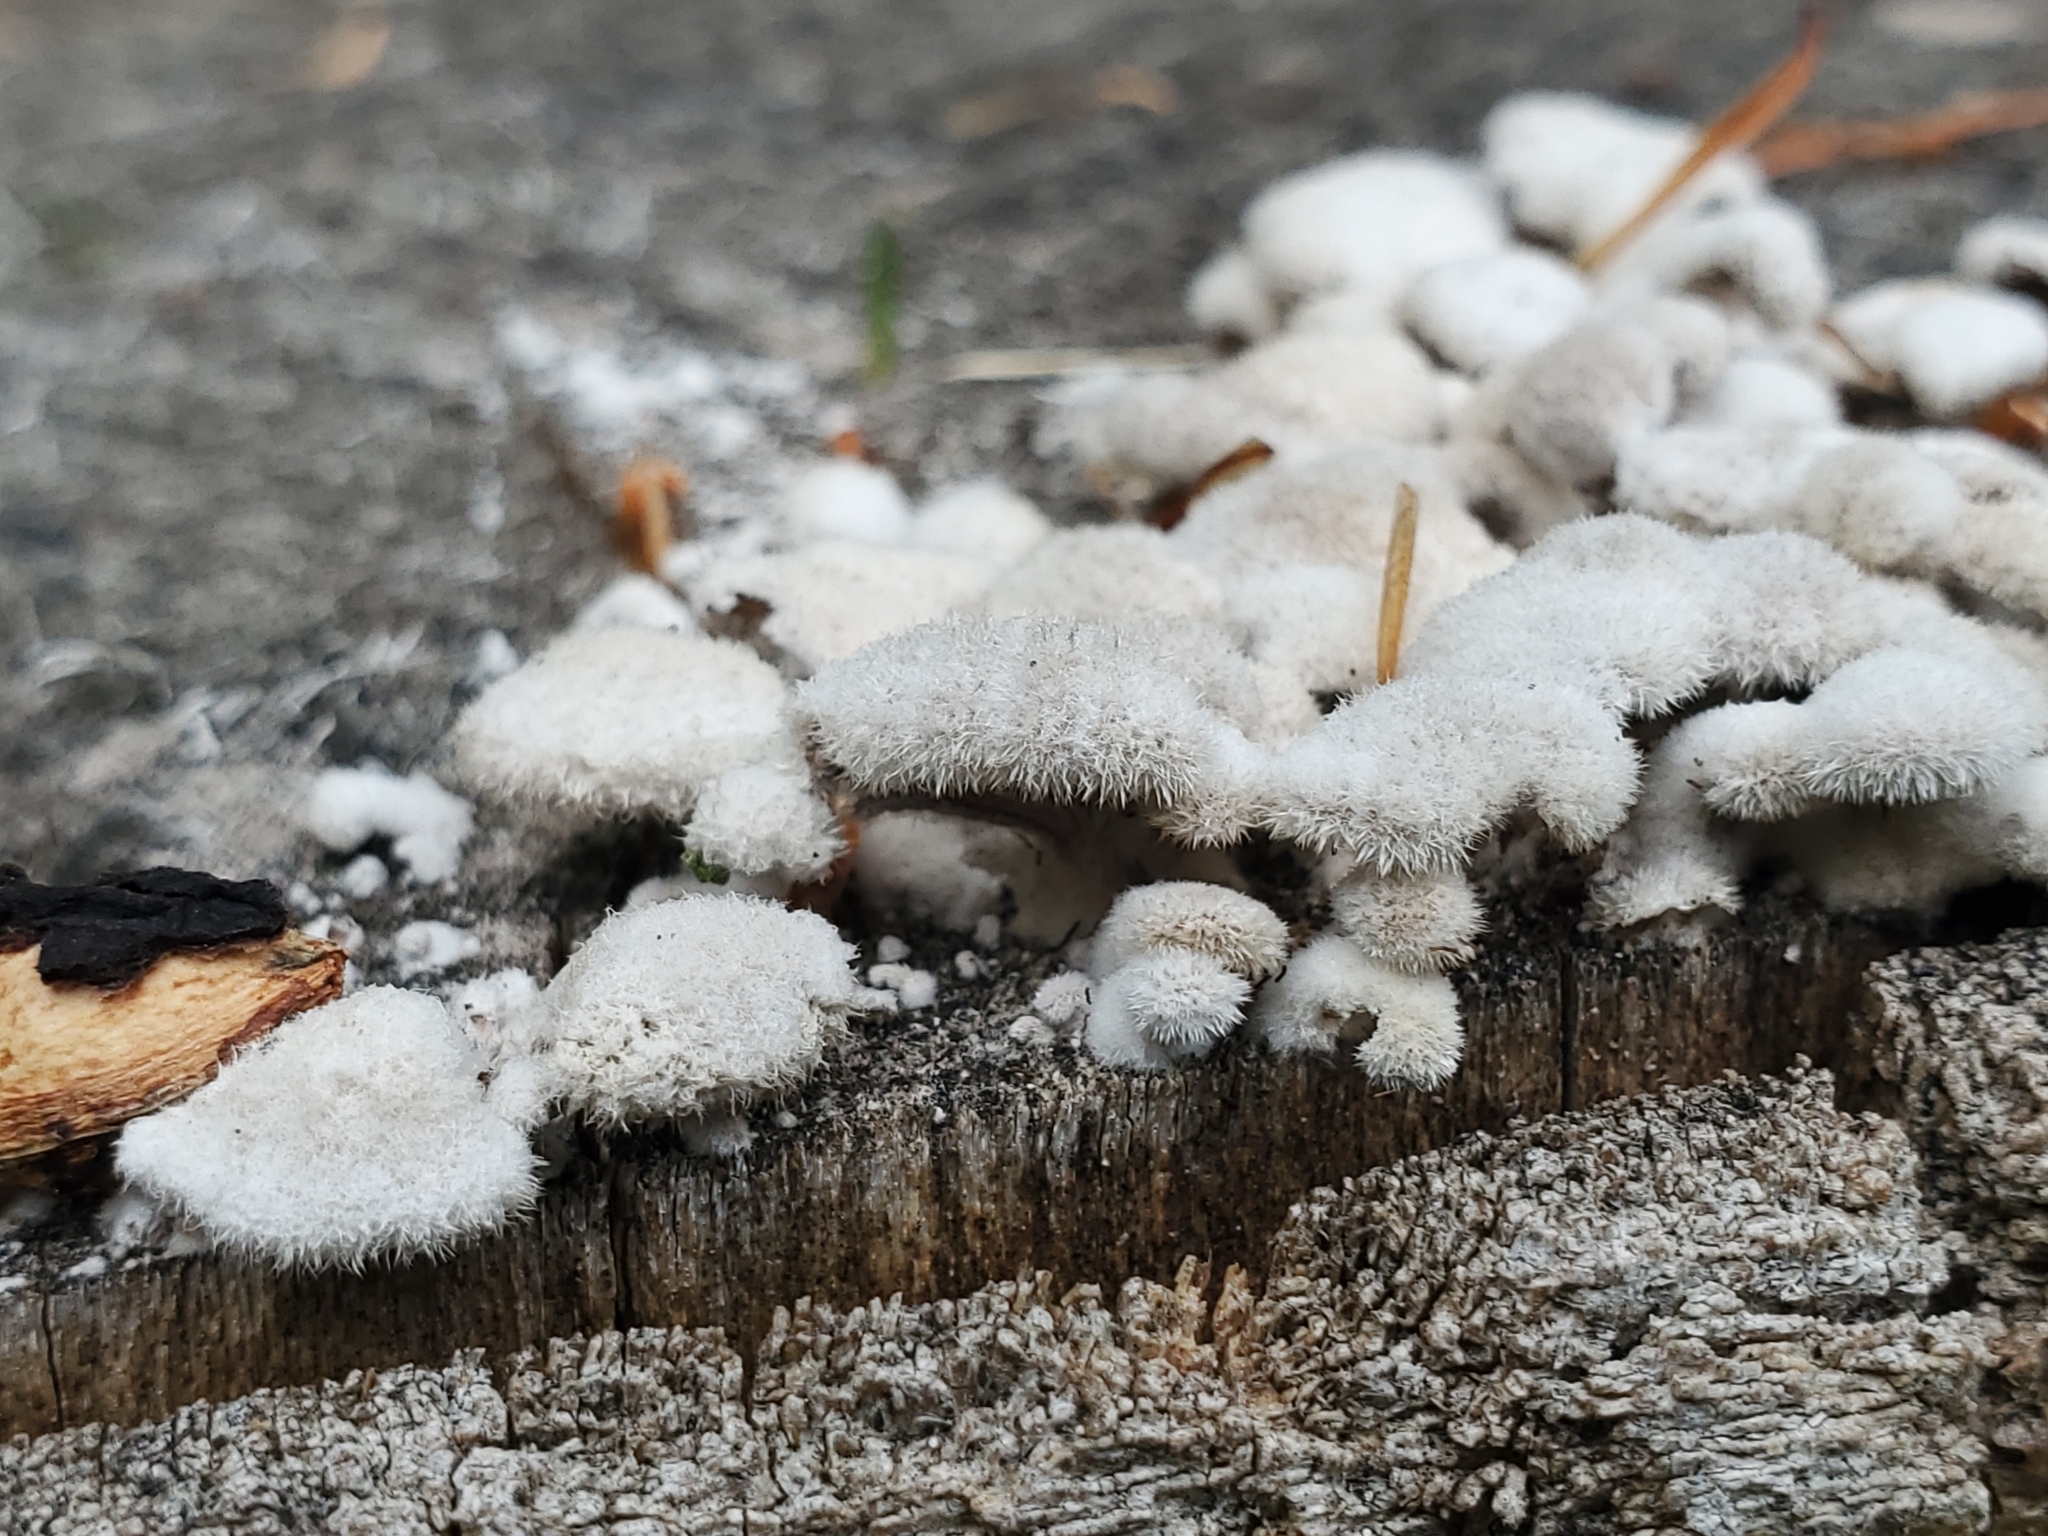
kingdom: Fungi
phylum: Basidiomycota
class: Agaricomycetes
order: Agaricales
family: Schizophyllaceae
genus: Schizophyllum
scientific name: Schizophyllum commune
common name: Common porecrust
